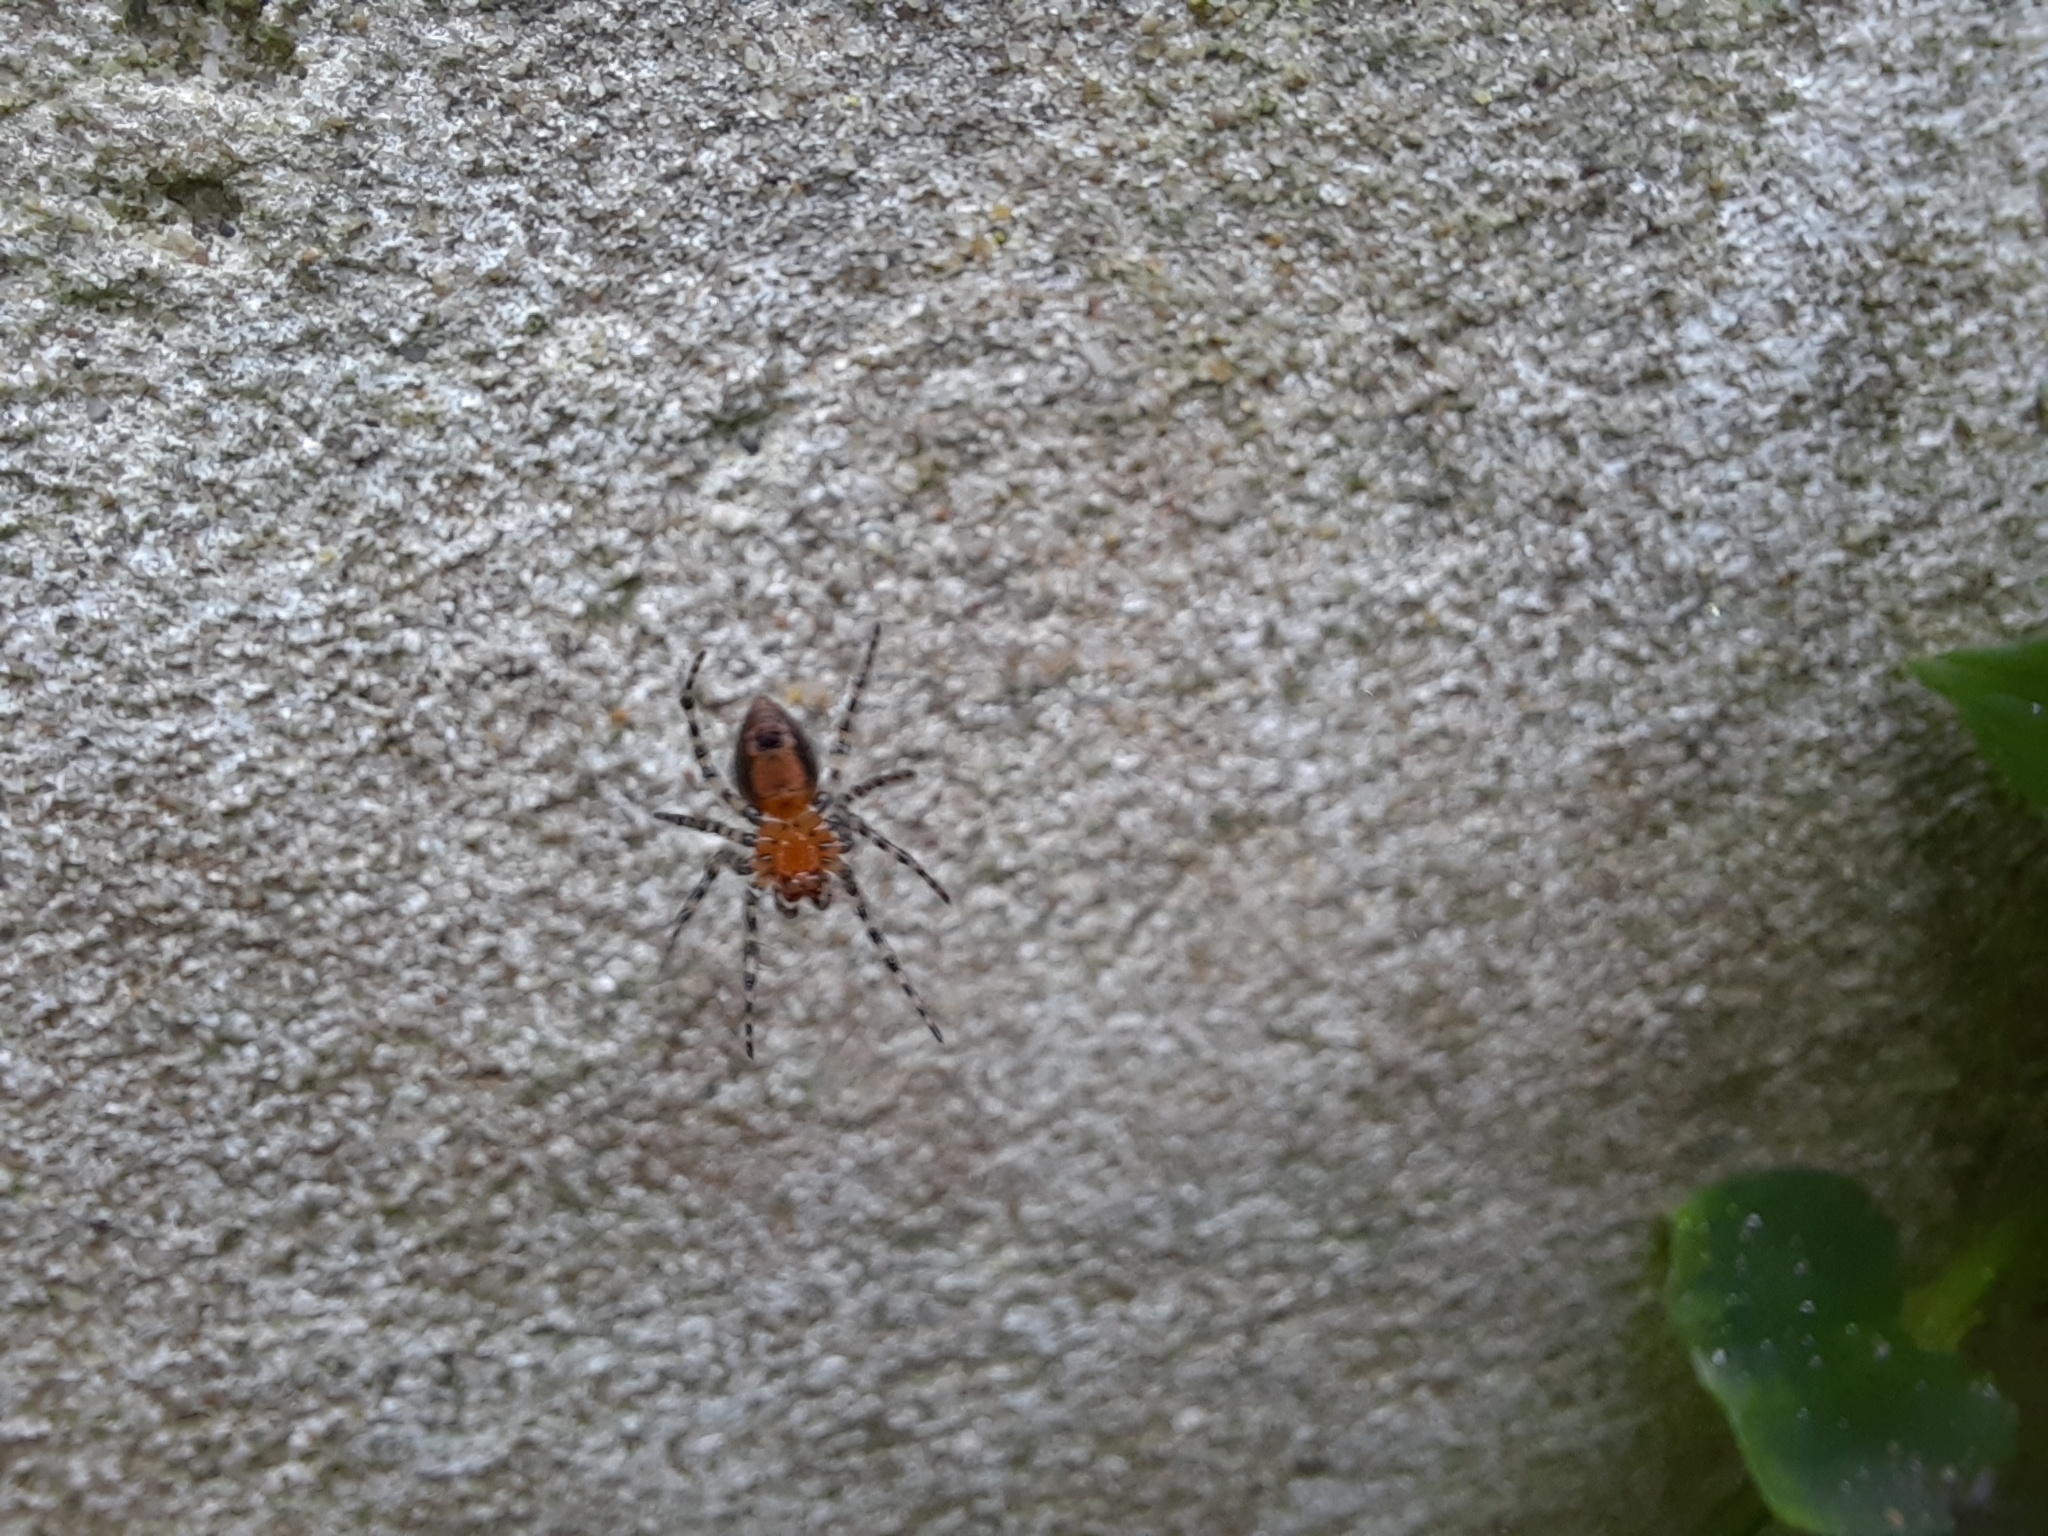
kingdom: Animalia
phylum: Arthropoda
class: Arachnida
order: Araneae
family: Araneidae
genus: Alpaida
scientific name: Alpaida gallardoi
